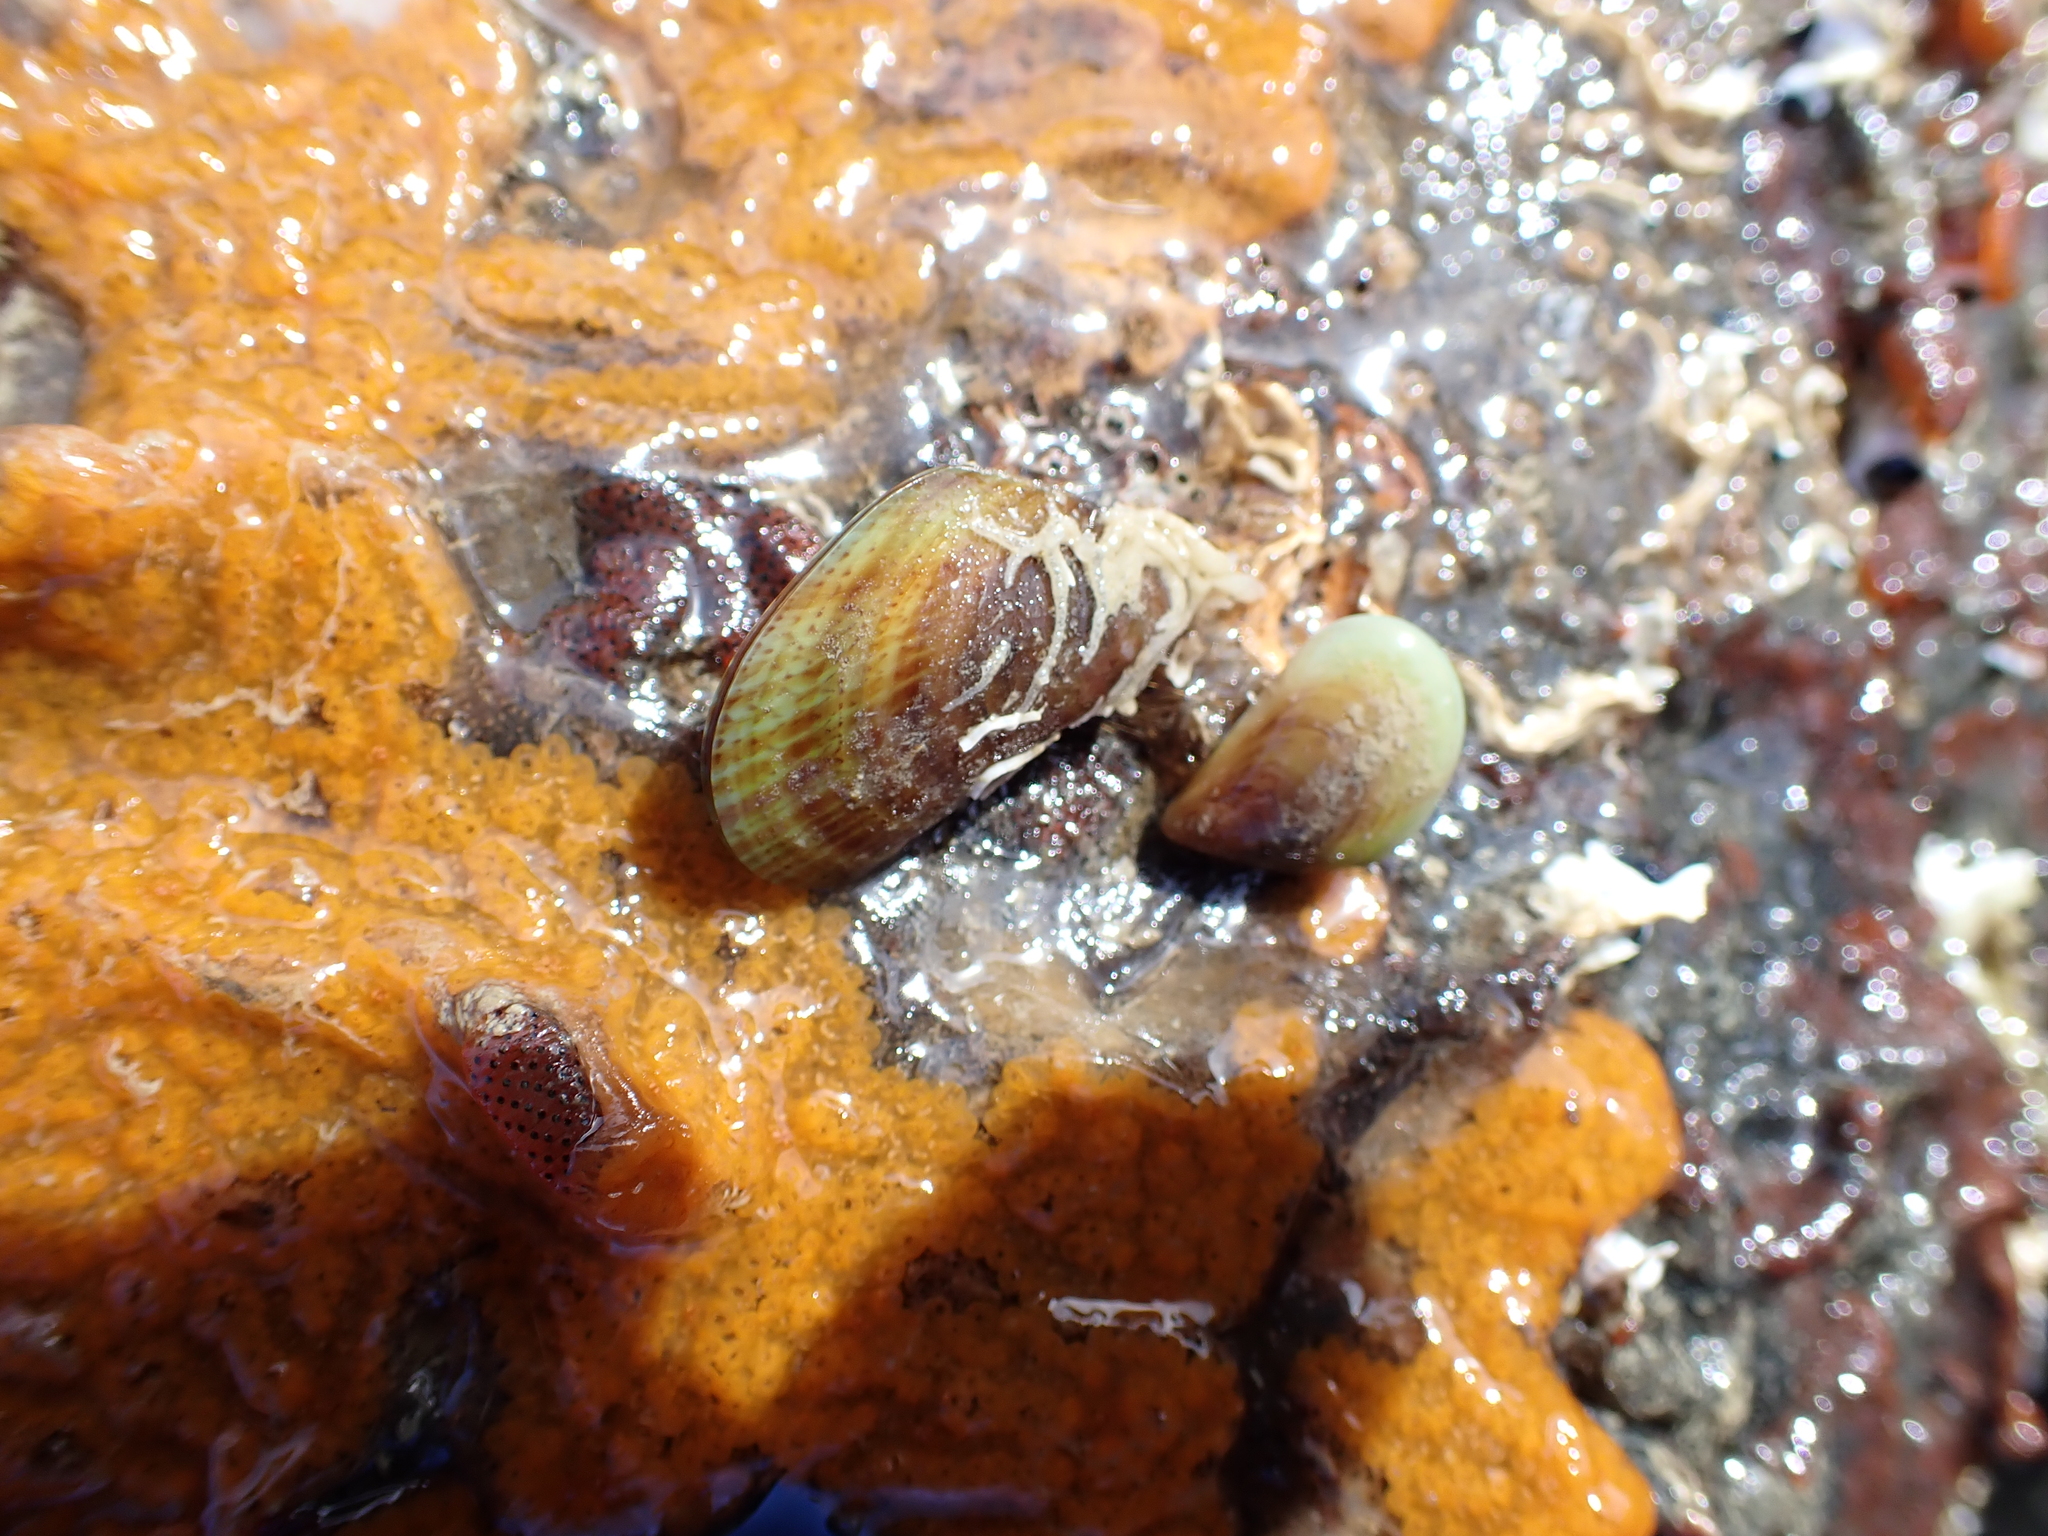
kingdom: Animalia
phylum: Mollusca
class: Bivalvia
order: Mytilida
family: Mytilidae
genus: Perna
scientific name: Perna canaliculus
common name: New zealand greenshelltm
